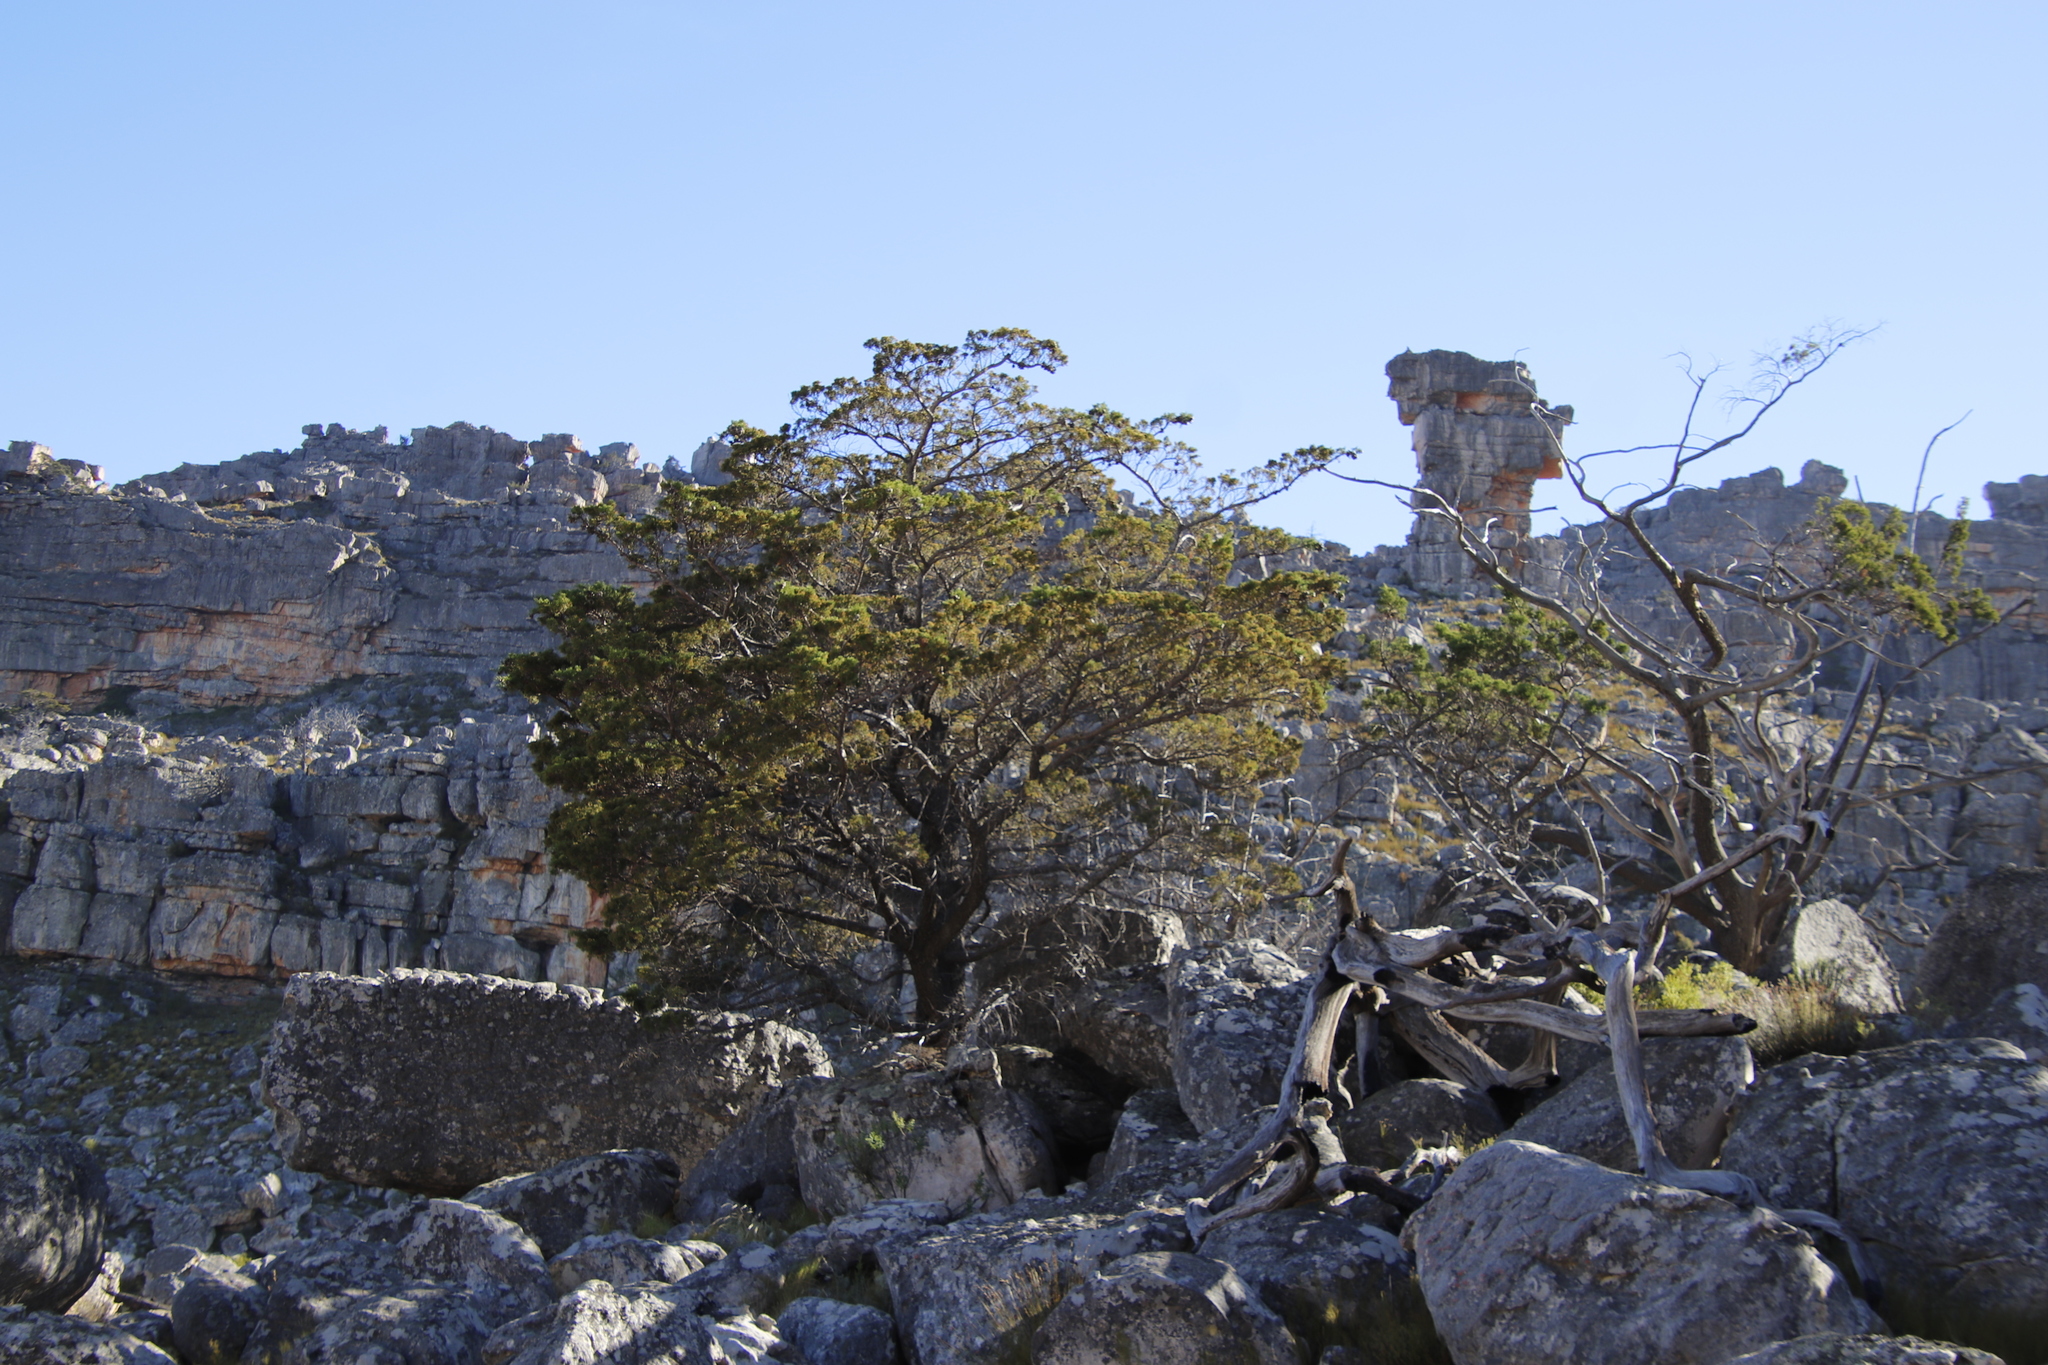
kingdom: Plantae
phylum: Tracheophyta
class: Pinopsida
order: Pinales
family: Cupressaceae
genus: Widdringtonia
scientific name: Widdringtonia nodiflora
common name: Cape cypress
